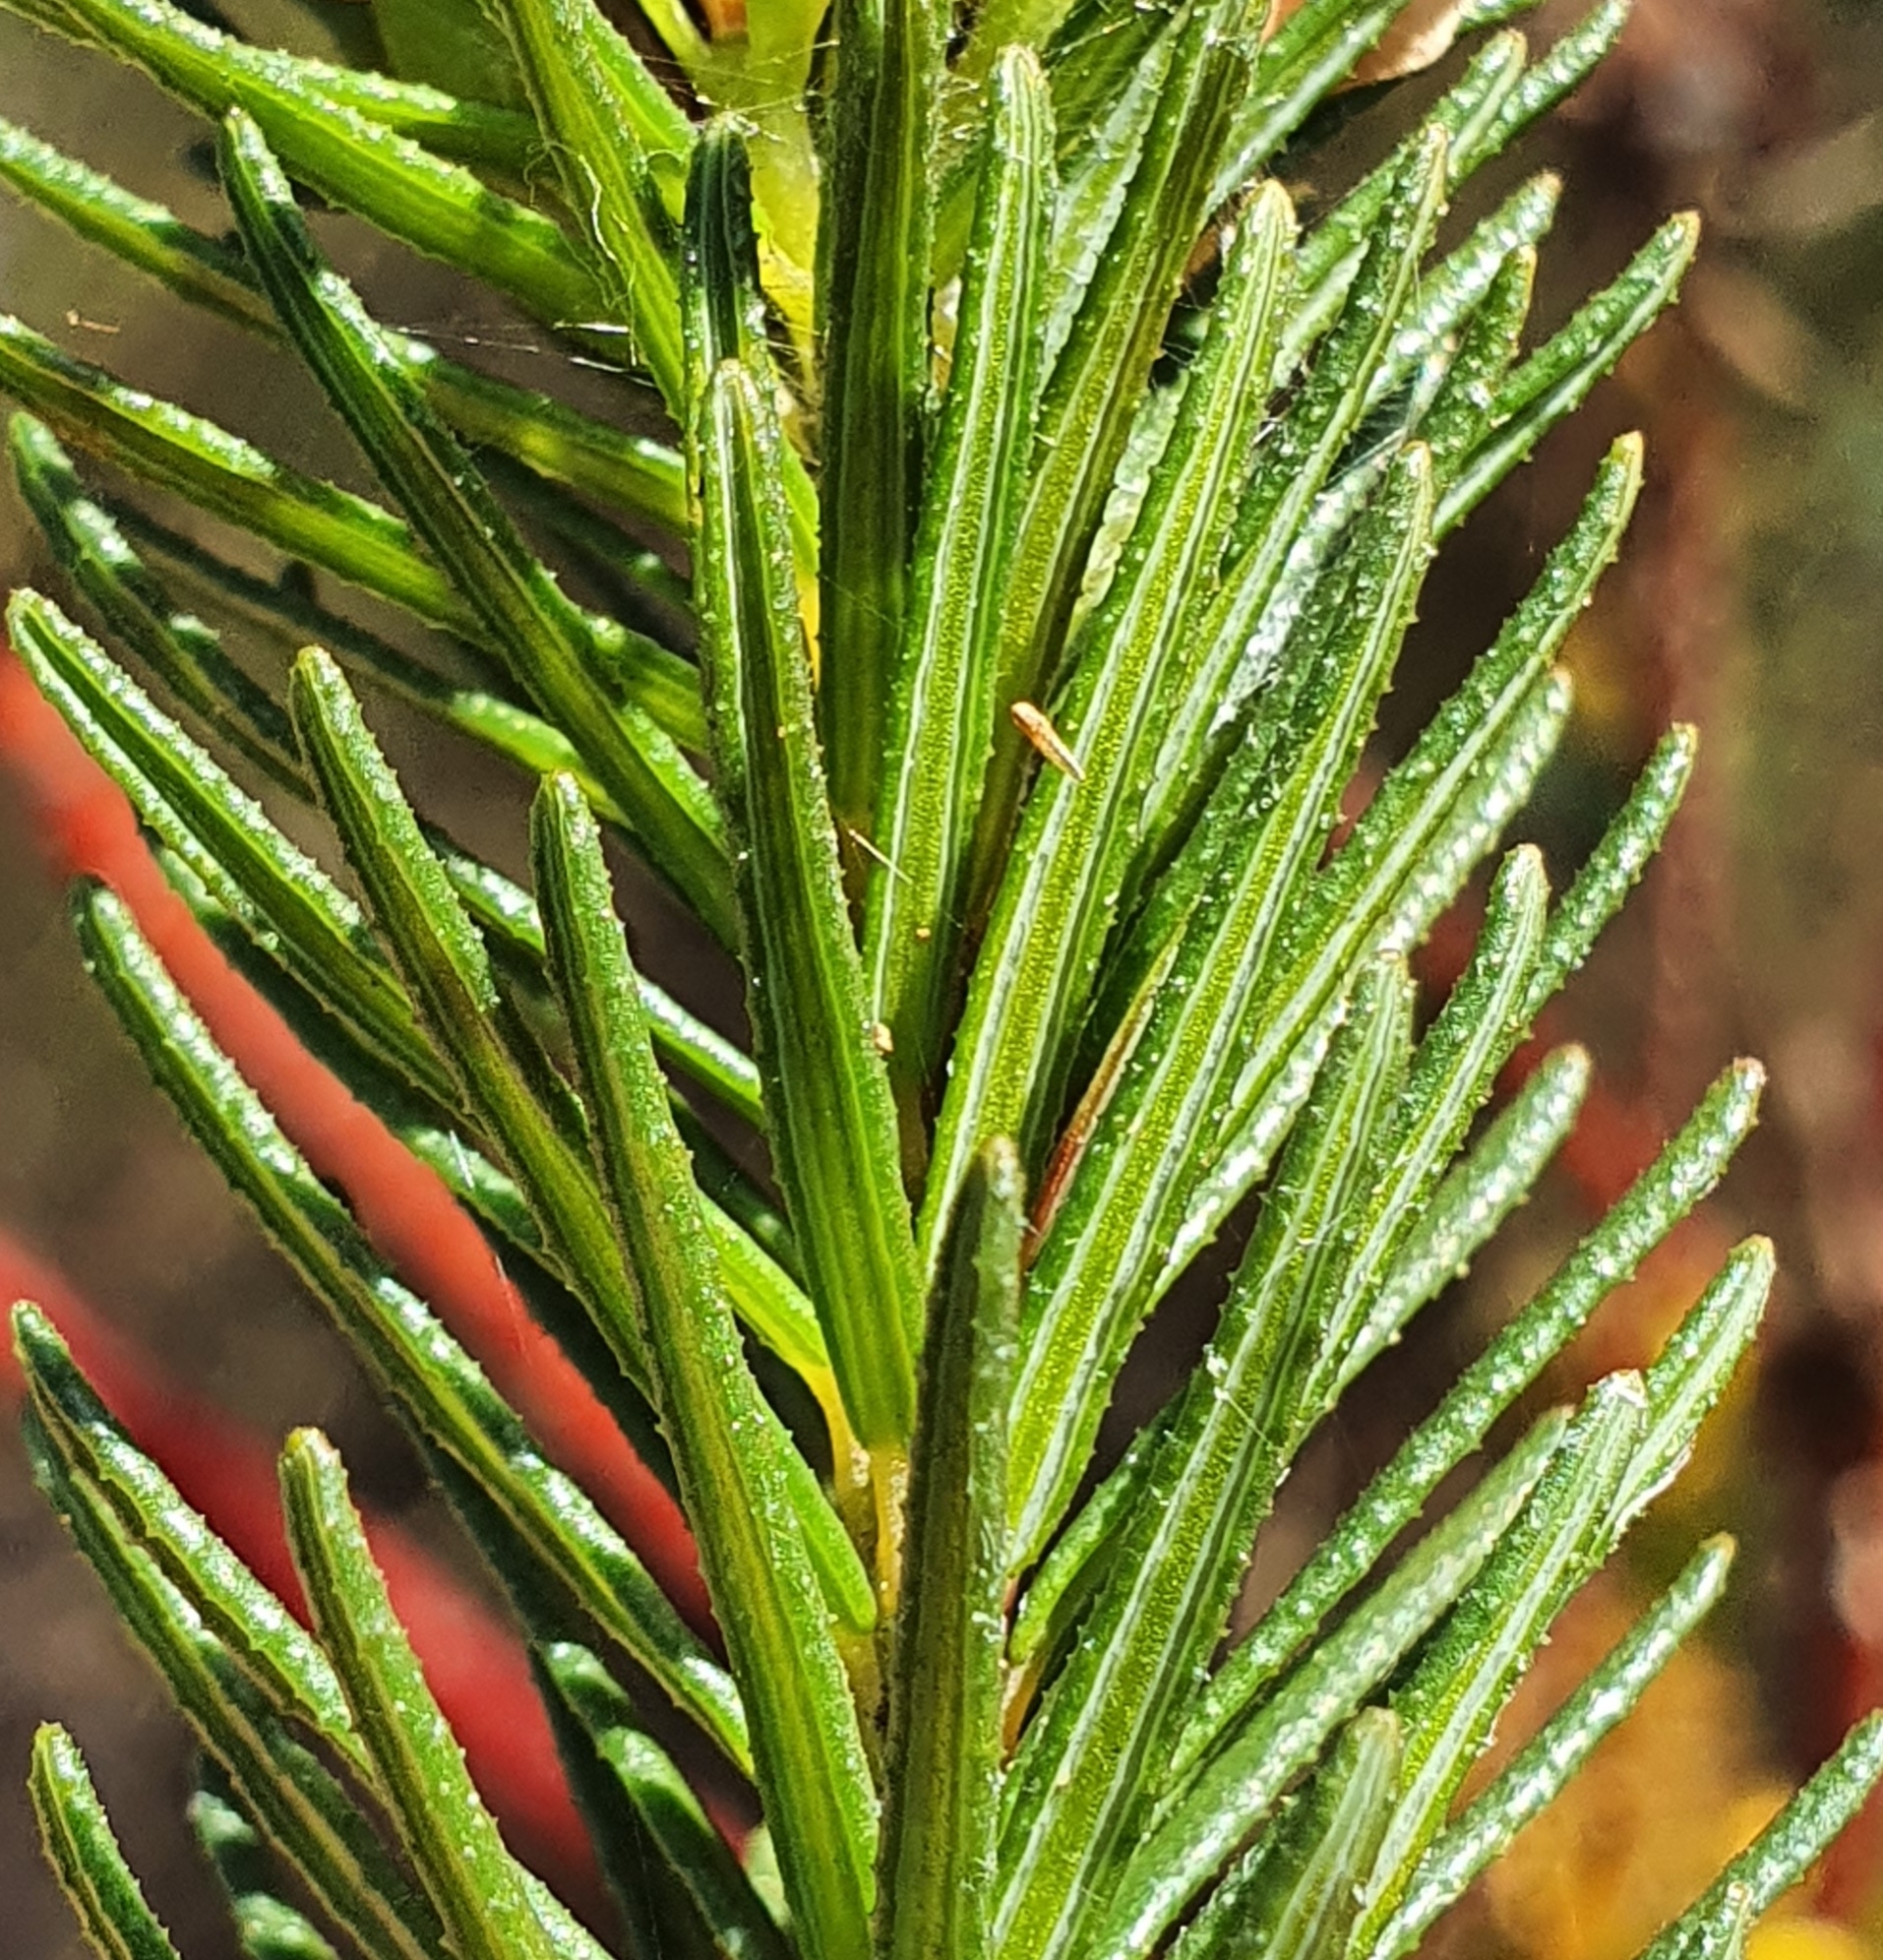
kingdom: Plantae
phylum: Tracheophyta
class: Magnoliopsida
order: Fabales
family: Fabaceae
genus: Phyllota
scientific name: Phyllota phylicoides
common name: Heath phyllota
